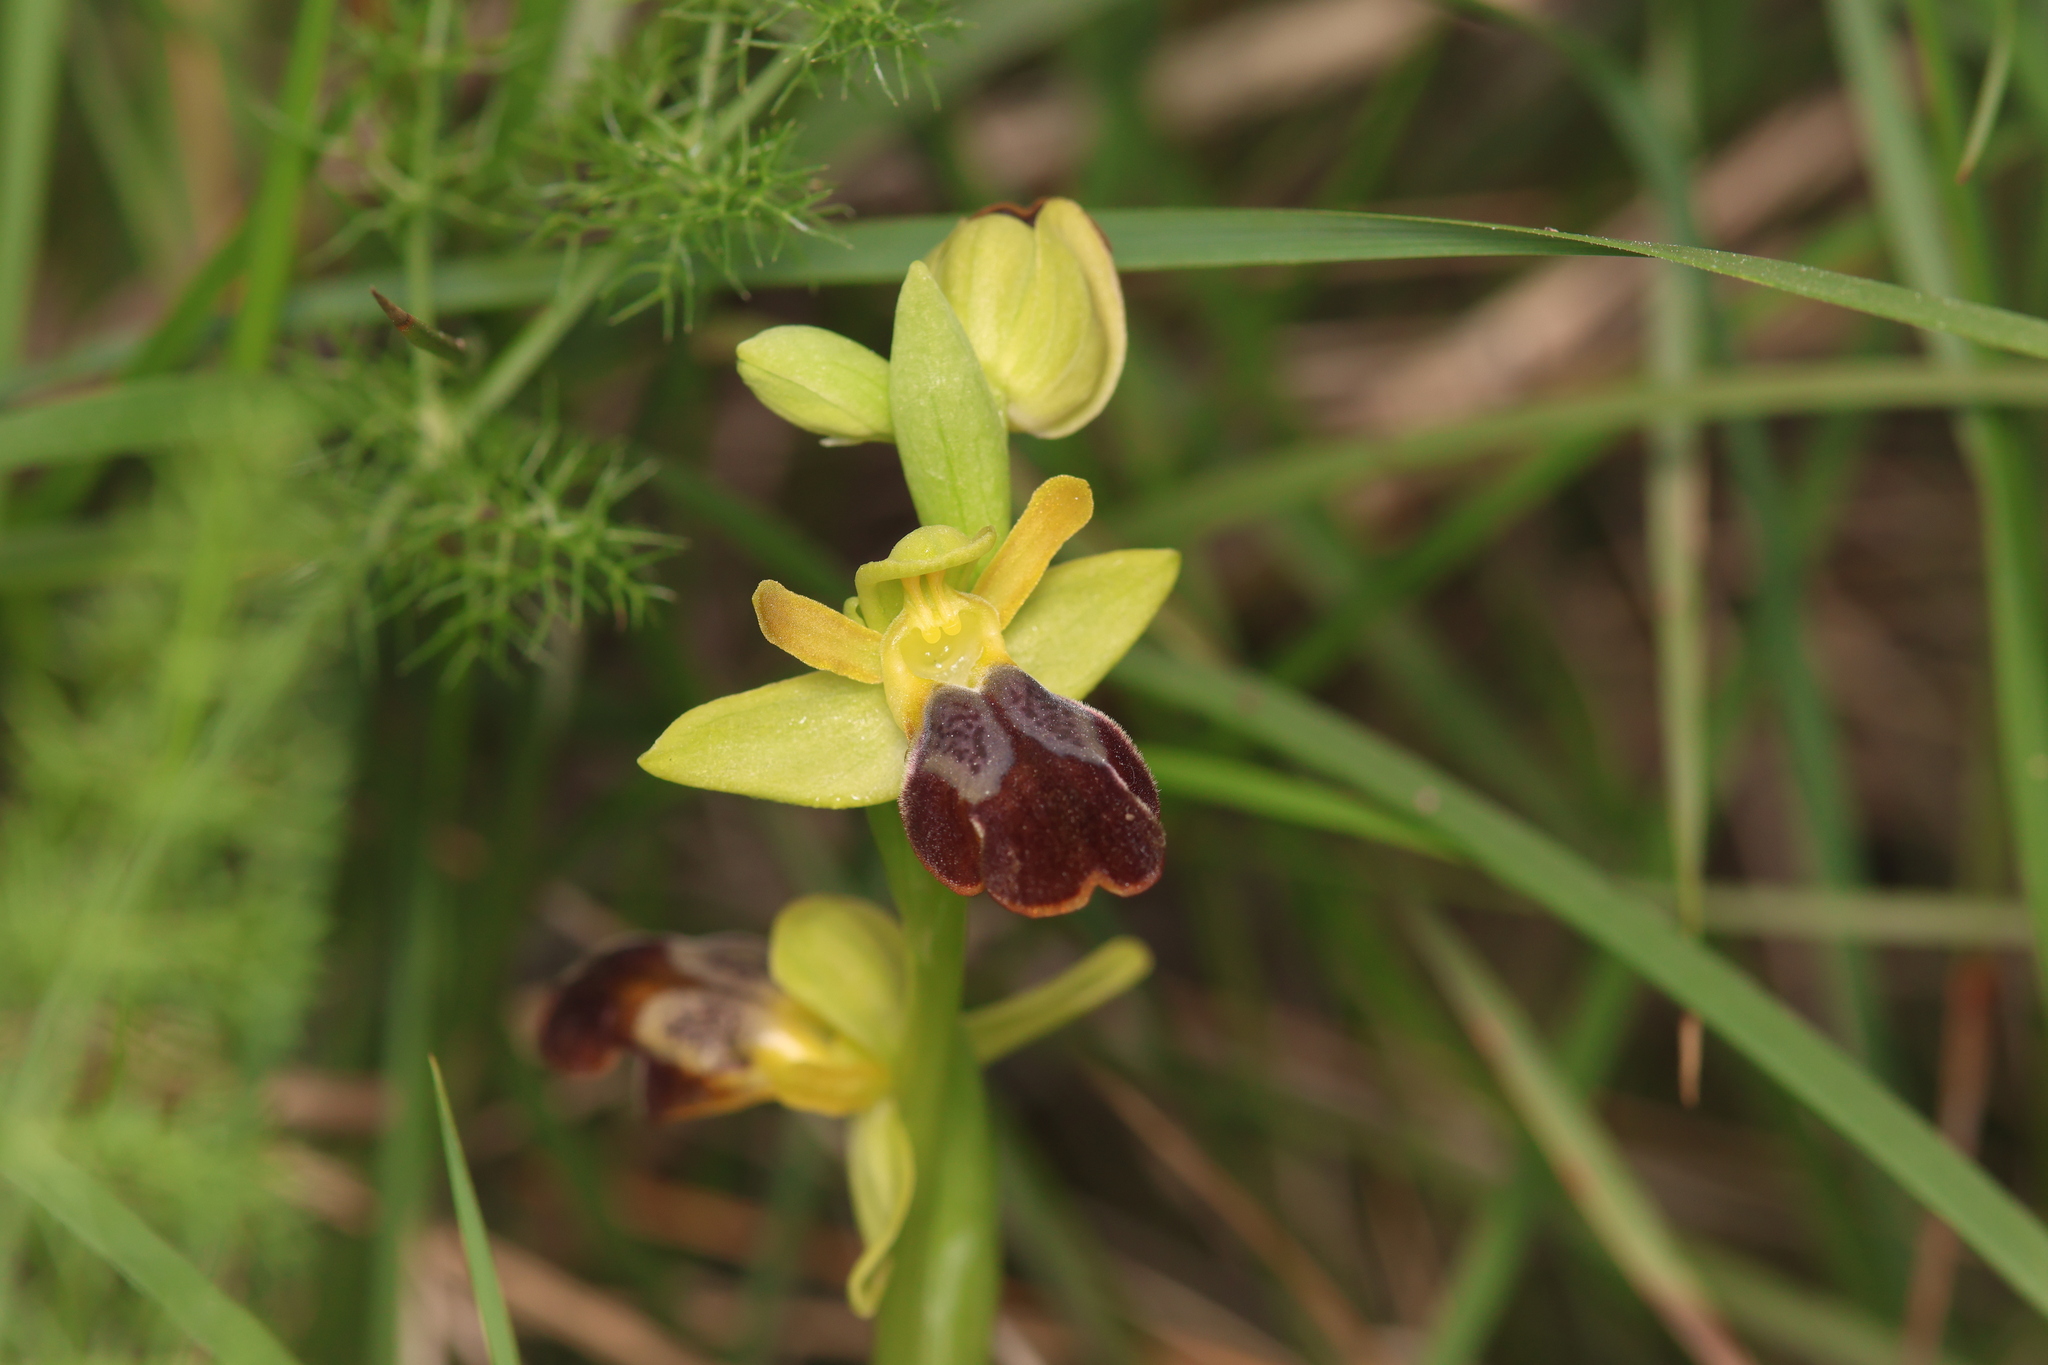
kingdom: Plantae
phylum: Tracheophyta
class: Liliopsida
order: Asparagales
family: Orchidaceae
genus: Ophrys
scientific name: Ophrys fusca
